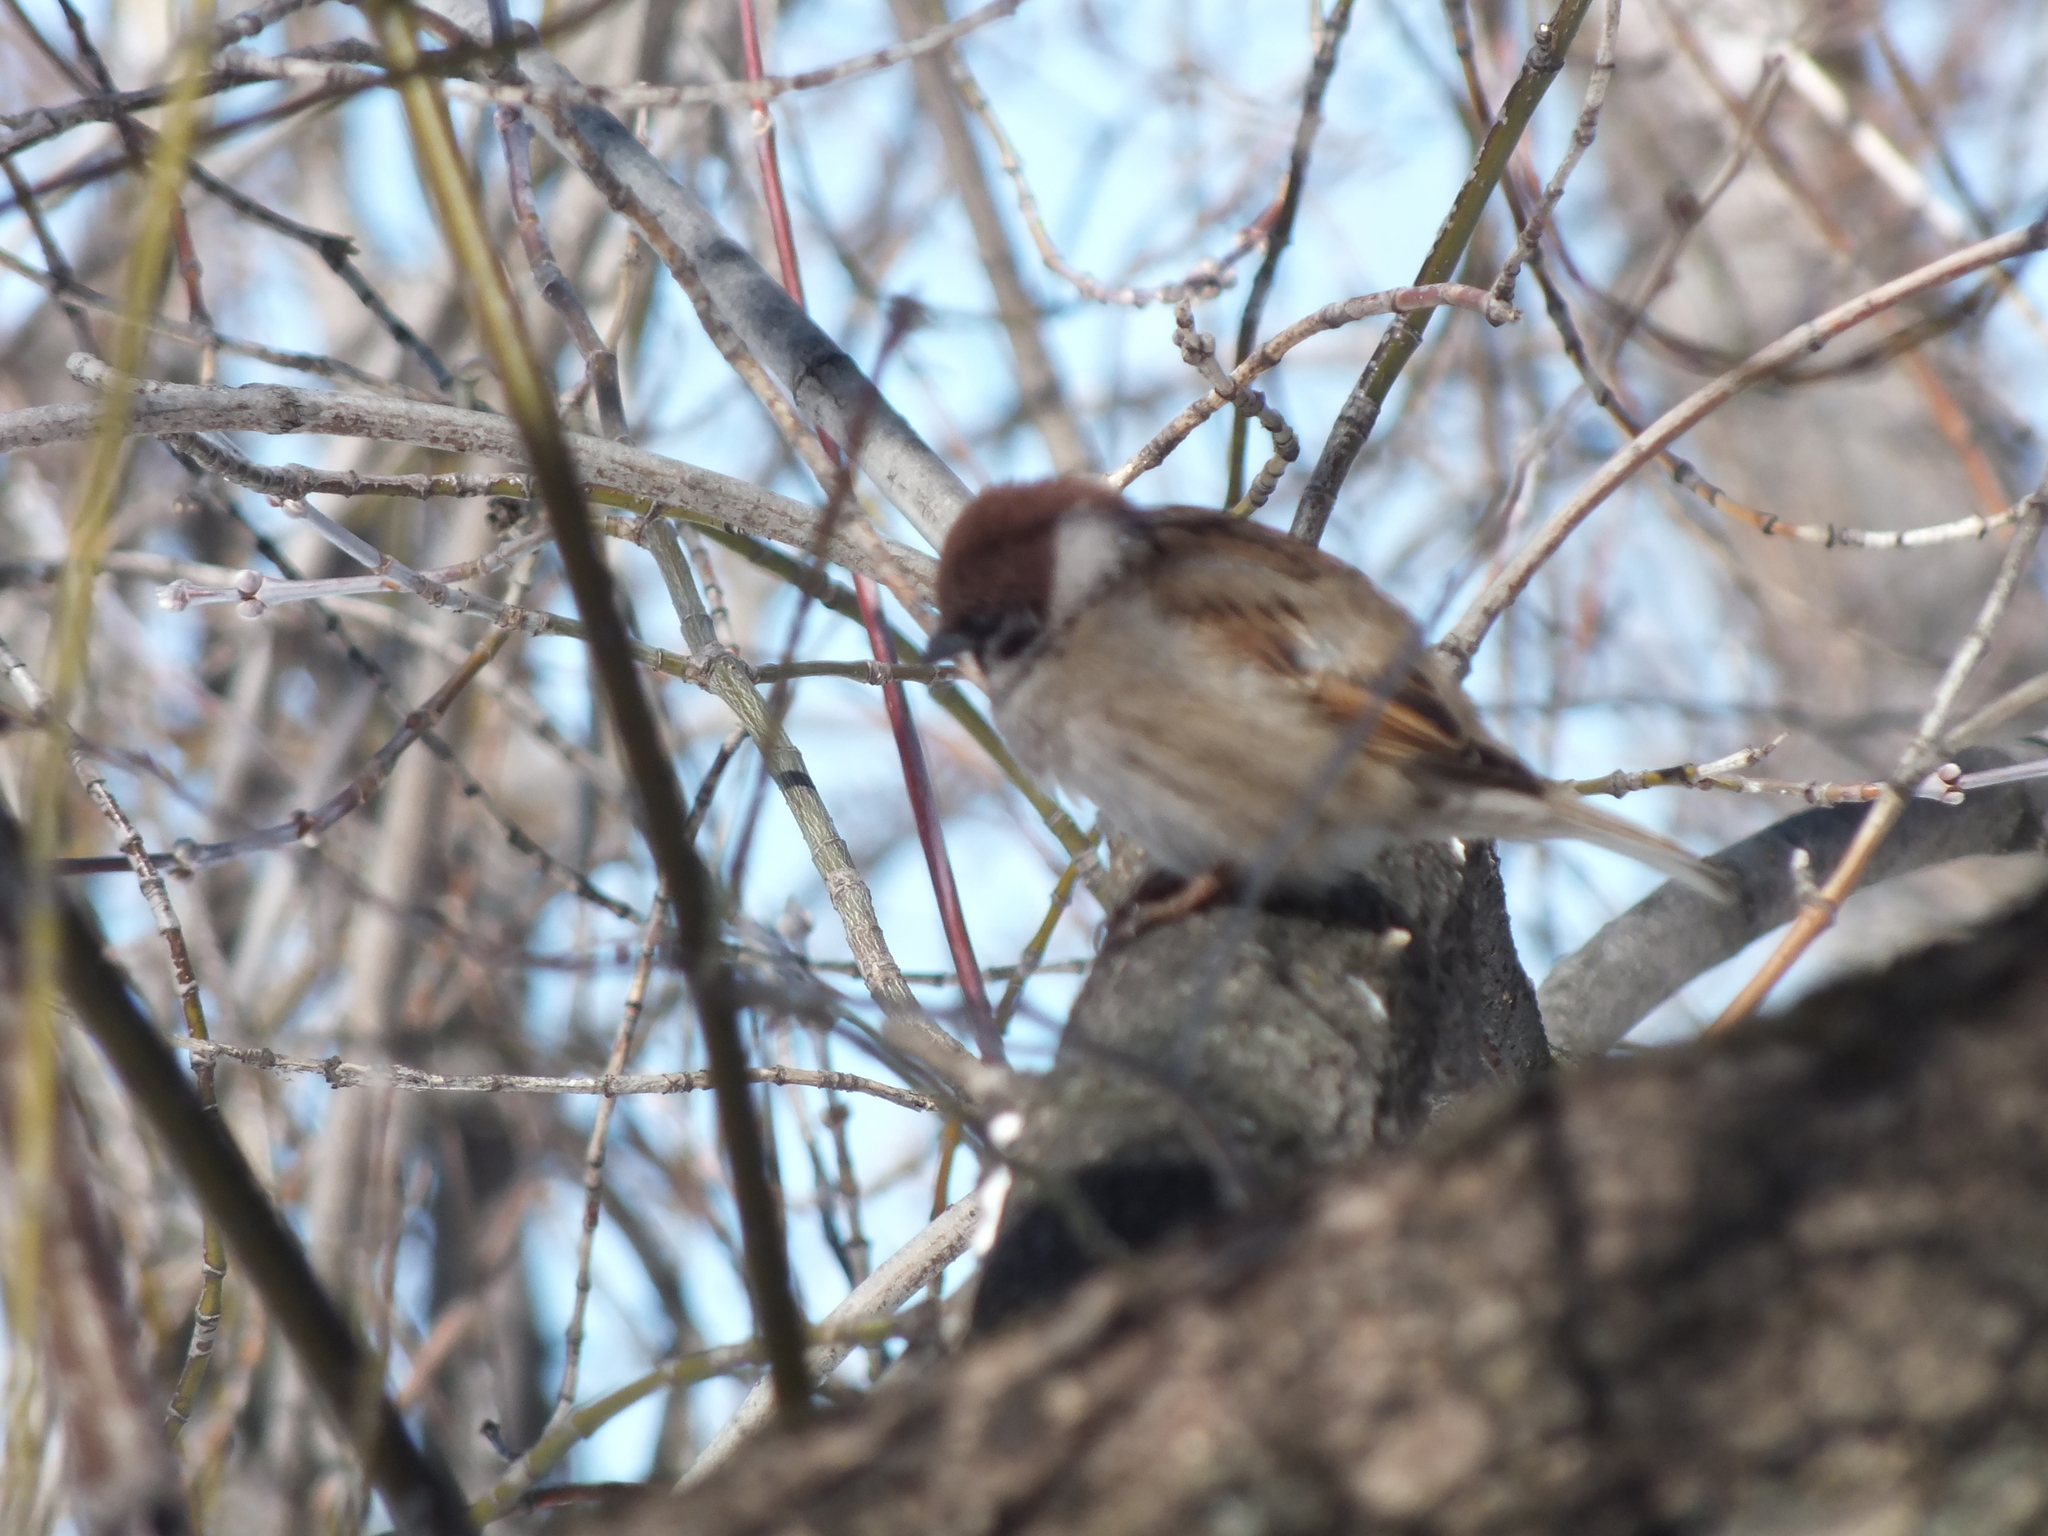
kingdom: Animalia
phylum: Chordata
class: Aves
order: Passeriformes
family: Passeridae
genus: Passer
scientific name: Passer montanus
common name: Eurasian tree sparrow
